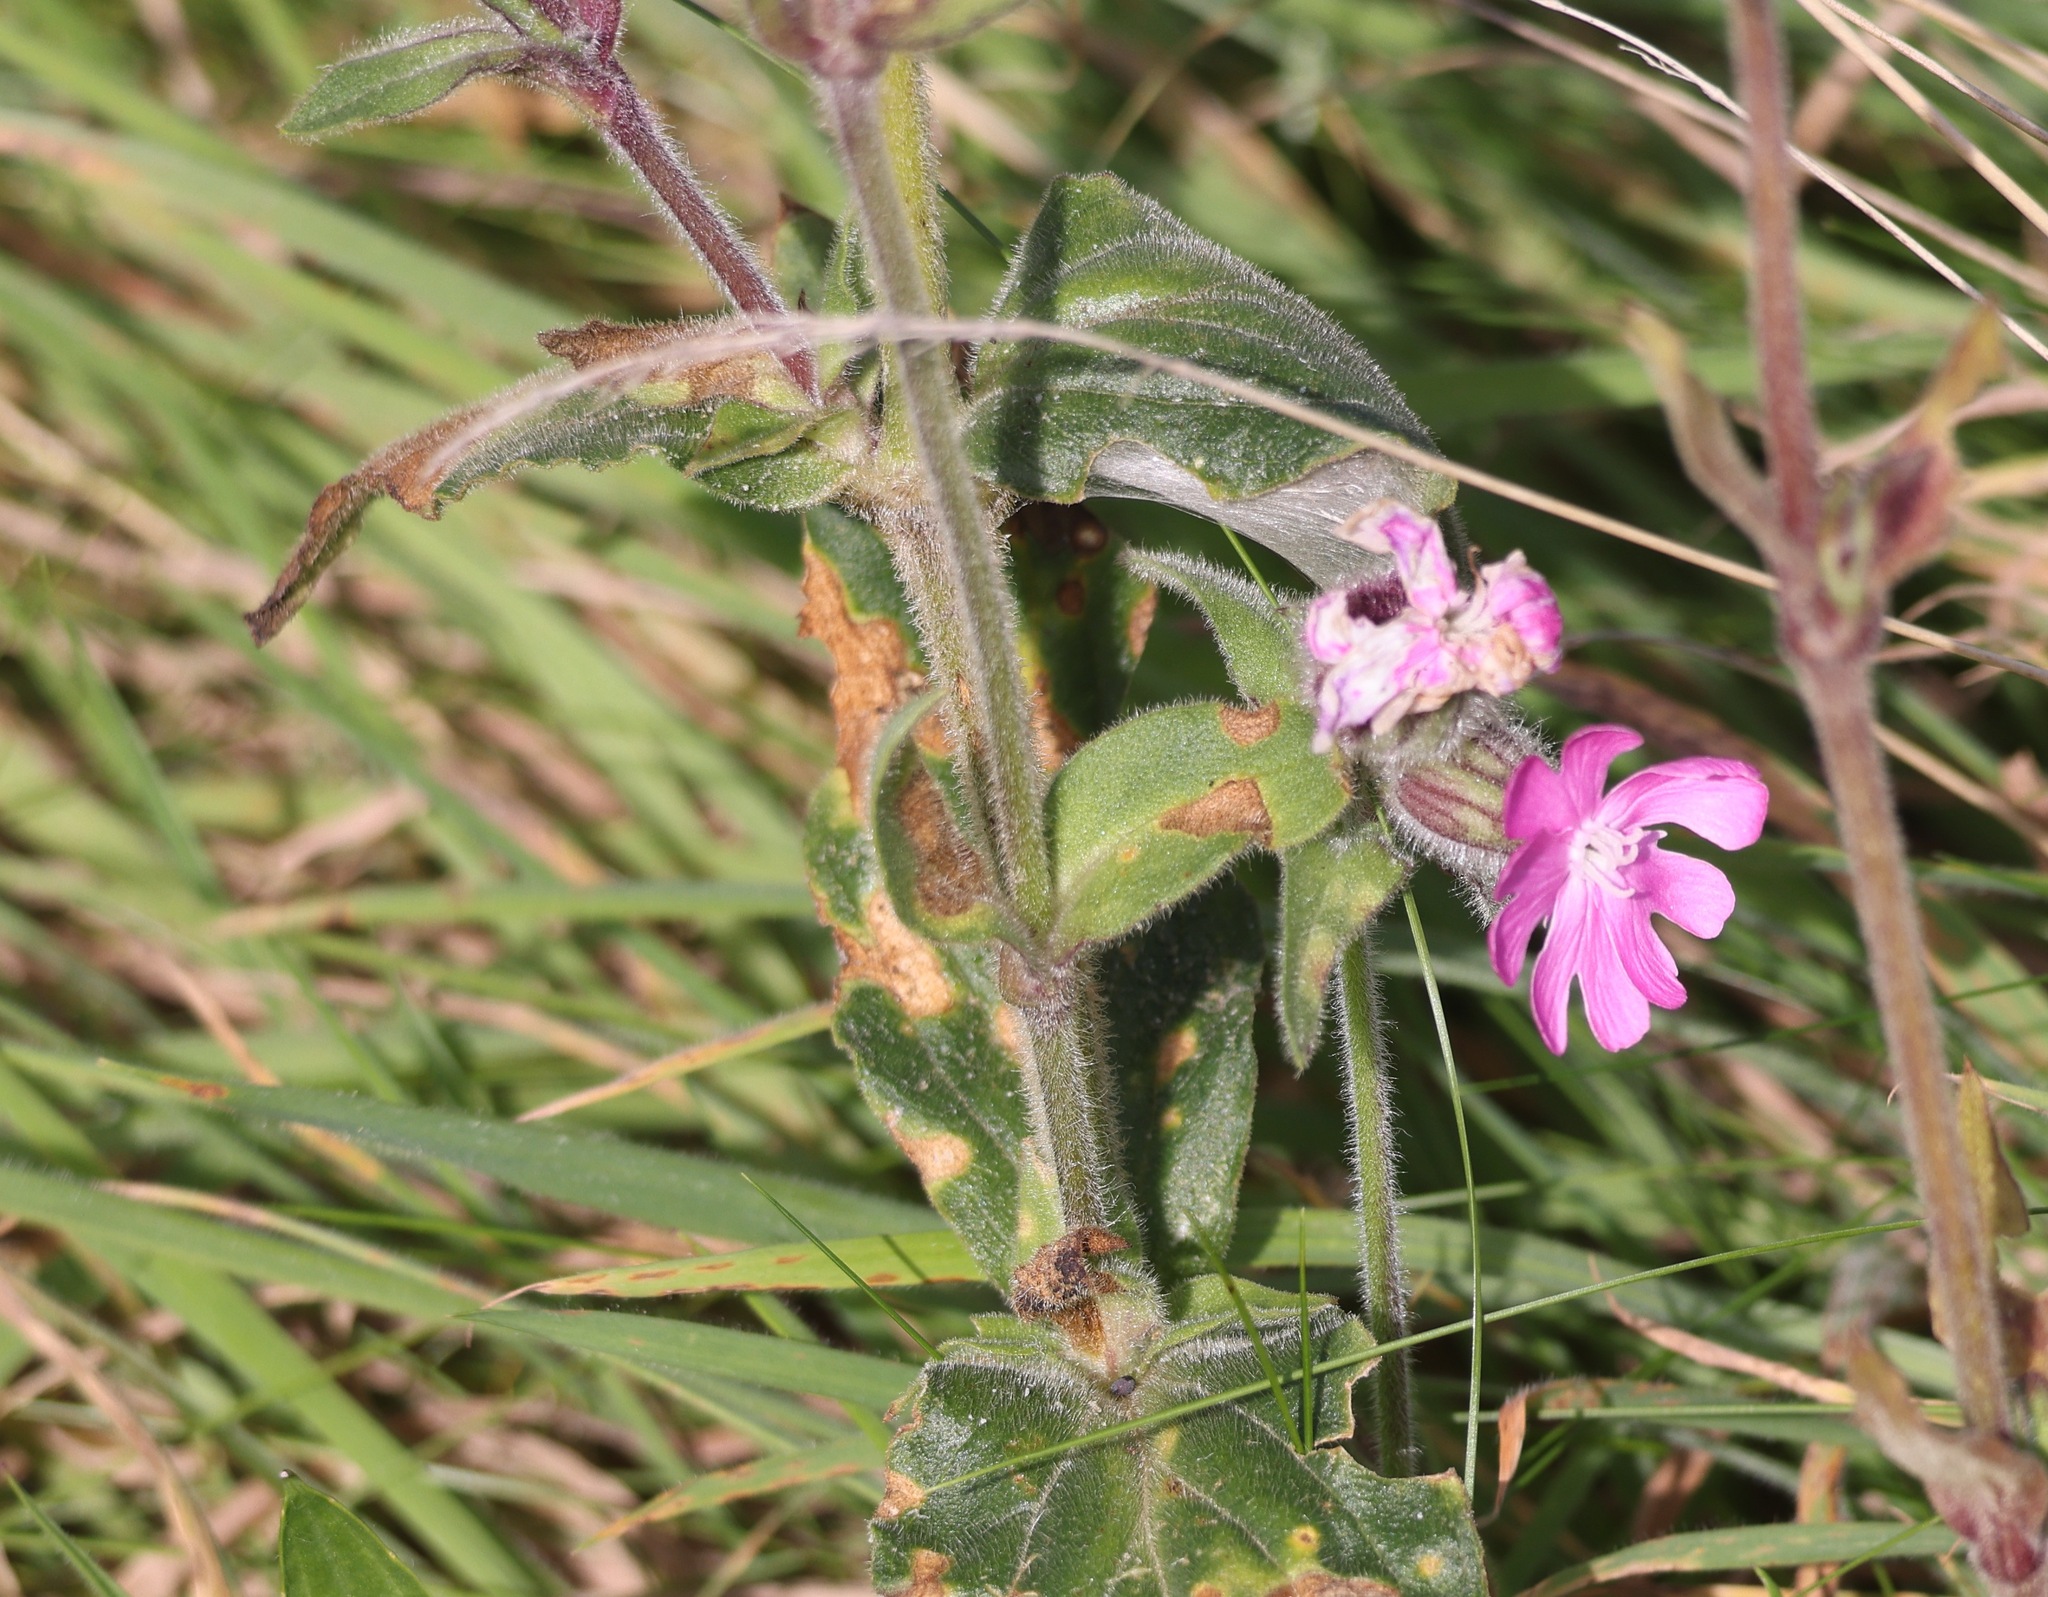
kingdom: Plantae
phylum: Tracheophyta
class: Magnoliopsida
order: Caryophyllales
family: Caryophyllaceae
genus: Silene
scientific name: Silene dioica
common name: Red campion
